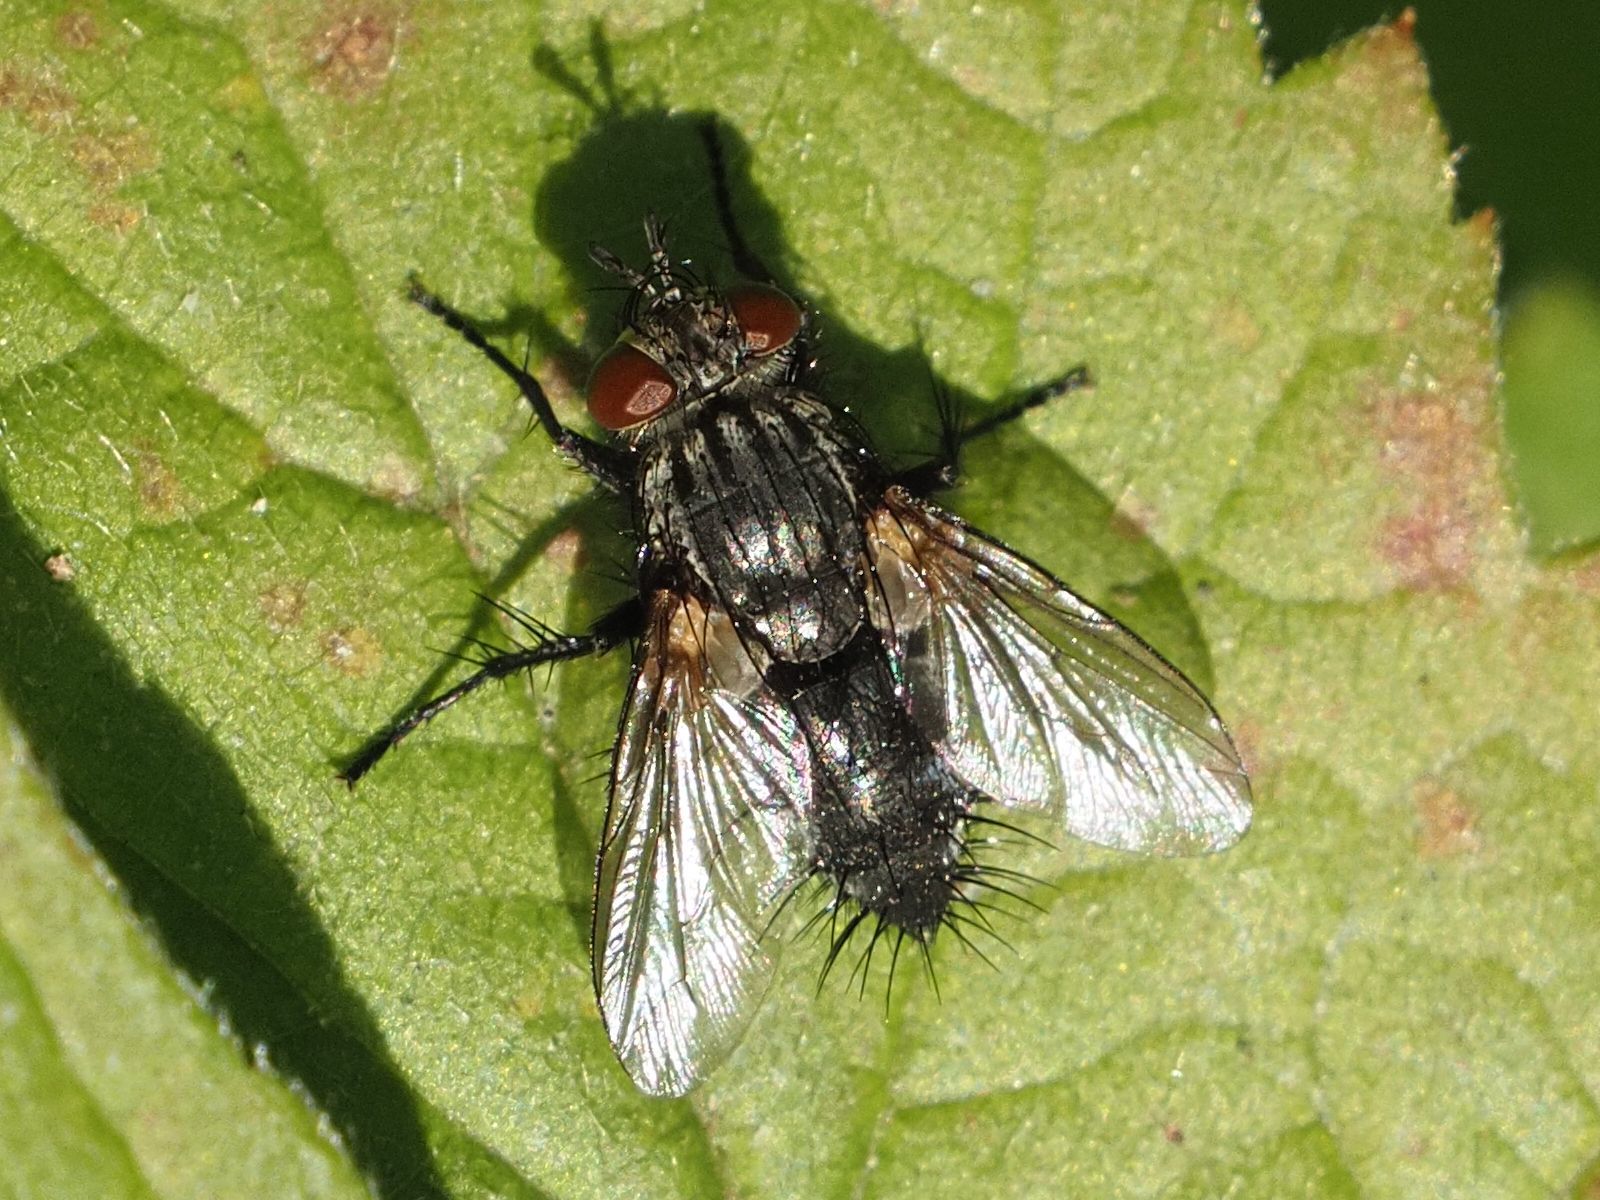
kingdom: Animalia
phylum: Arthropoda
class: Insecta
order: Diptera
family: Tachinidae
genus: Voria
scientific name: Voria ruralis
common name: Parasitic fly
